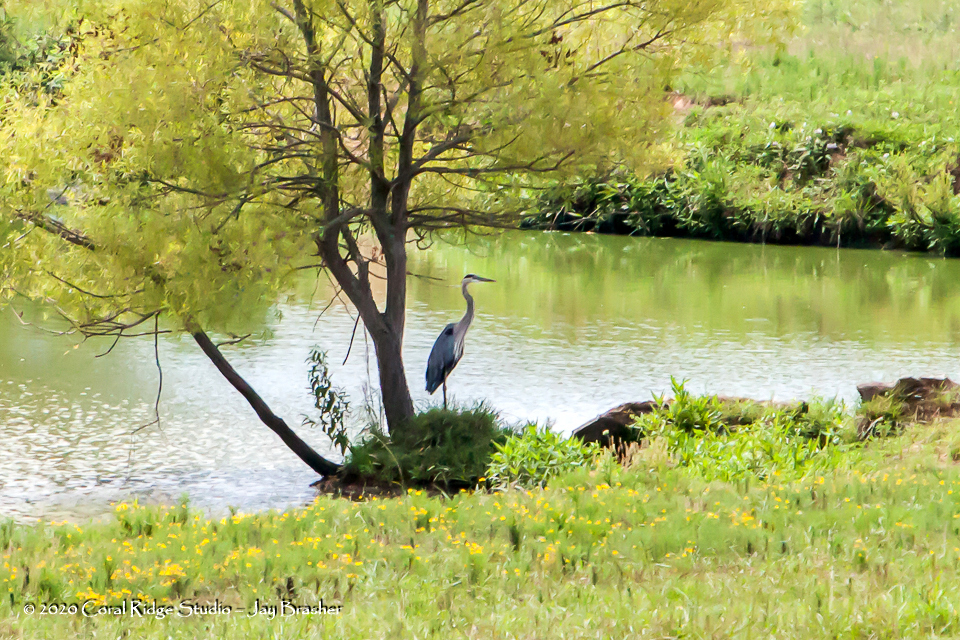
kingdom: Animalia
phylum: Chordata
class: Aves
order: Pelecaniformes
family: Ardeidae
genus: Ardea
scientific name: Ardea herodias
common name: Great blue heron
